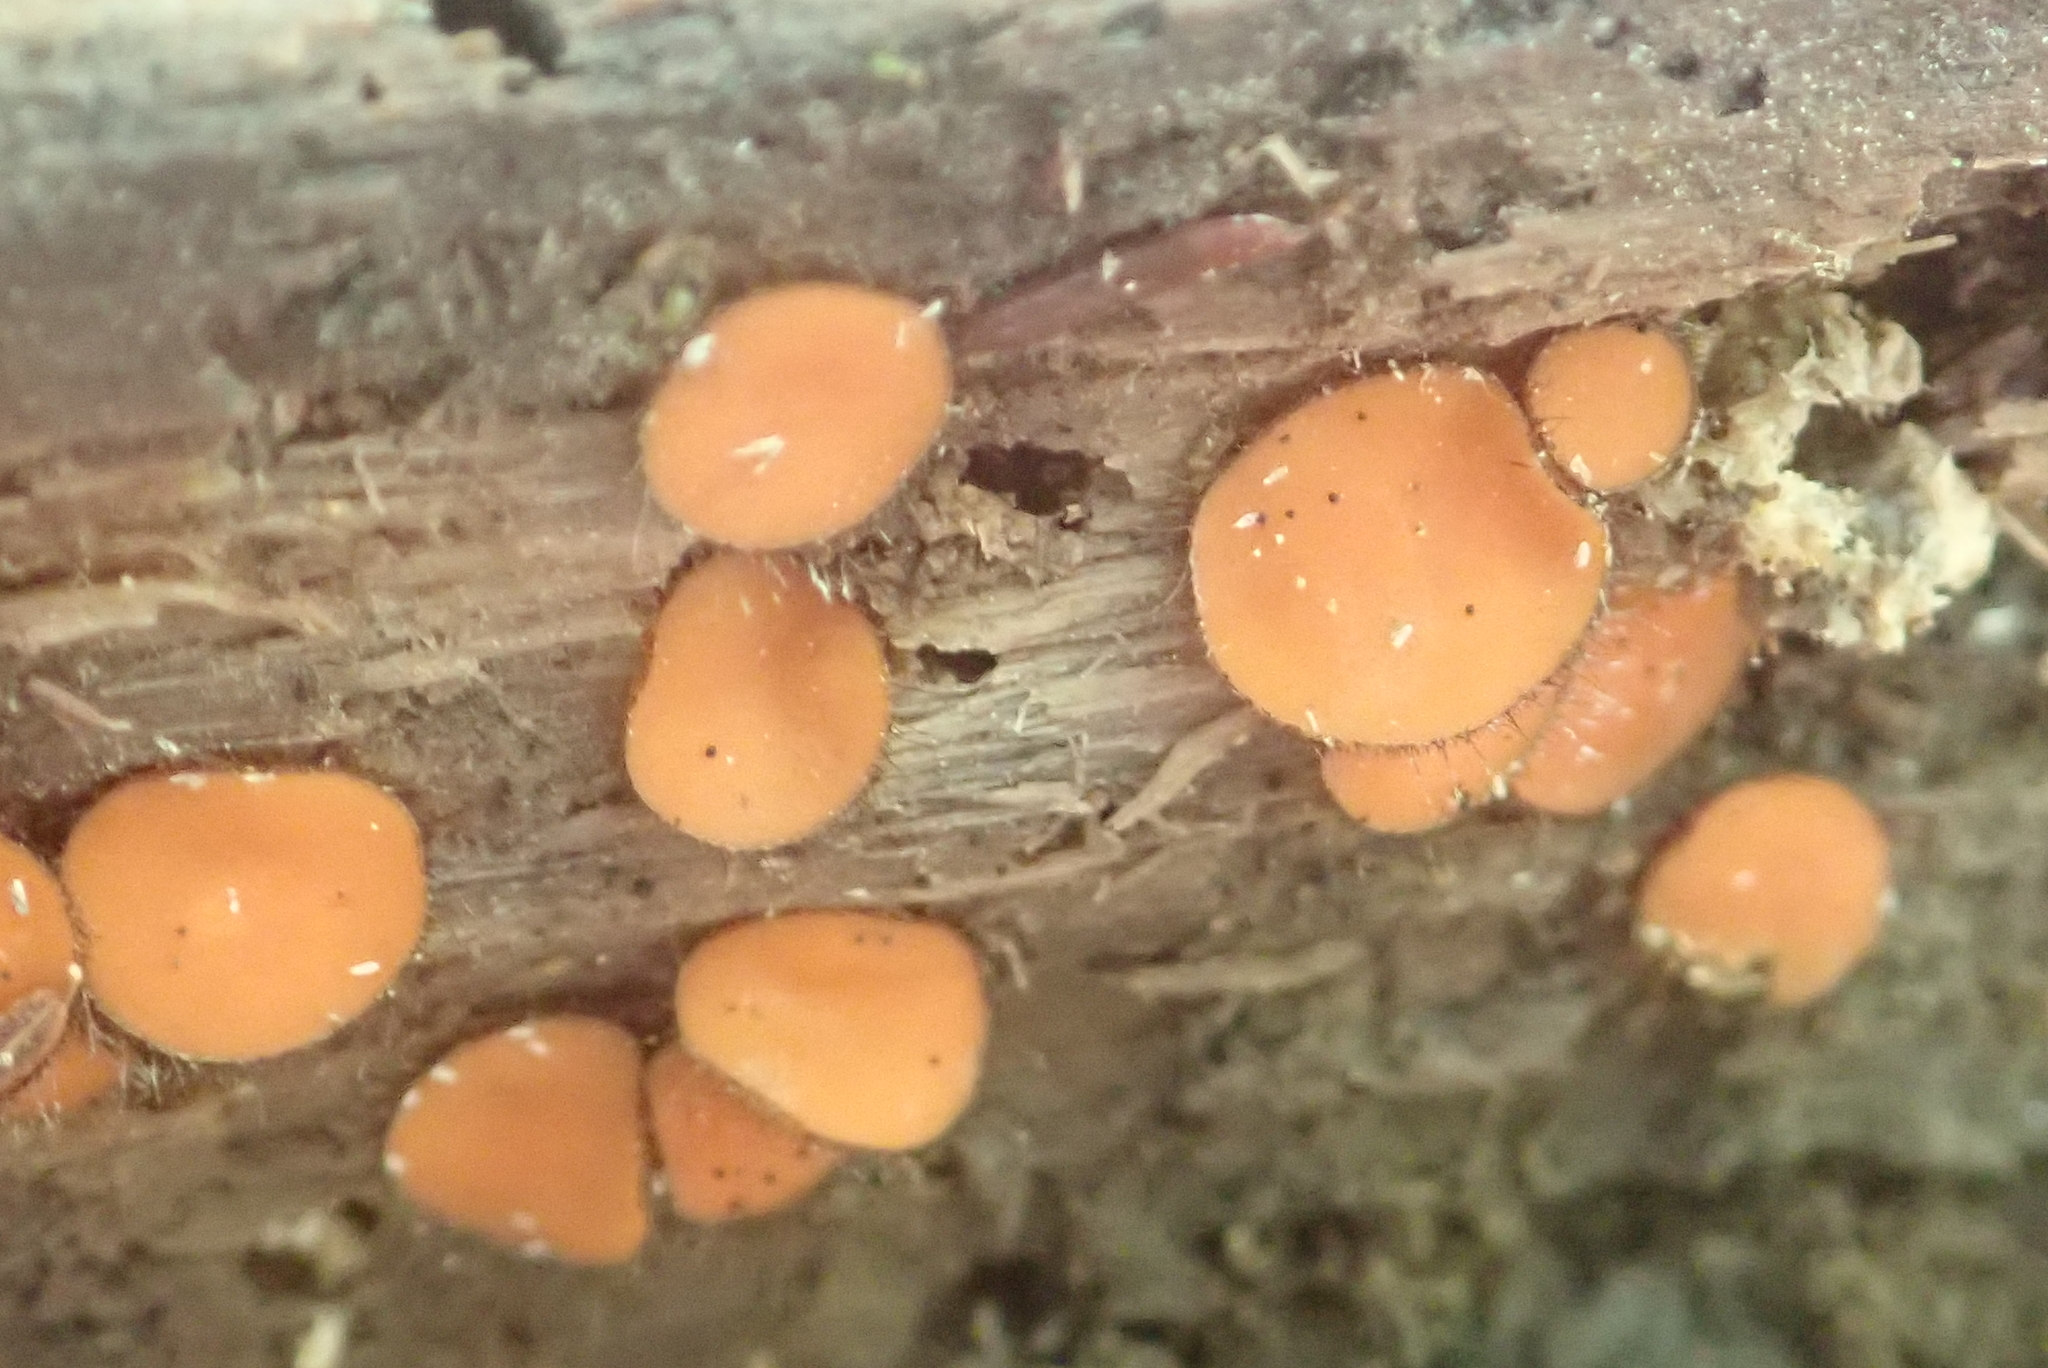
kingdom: Fungi
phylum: Ascomycota
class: Pezizomycetes
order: Pezizales
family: Pyronemataceae
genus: Scutellinia
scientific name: Scutellinia scutellata
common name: Common eyelash
